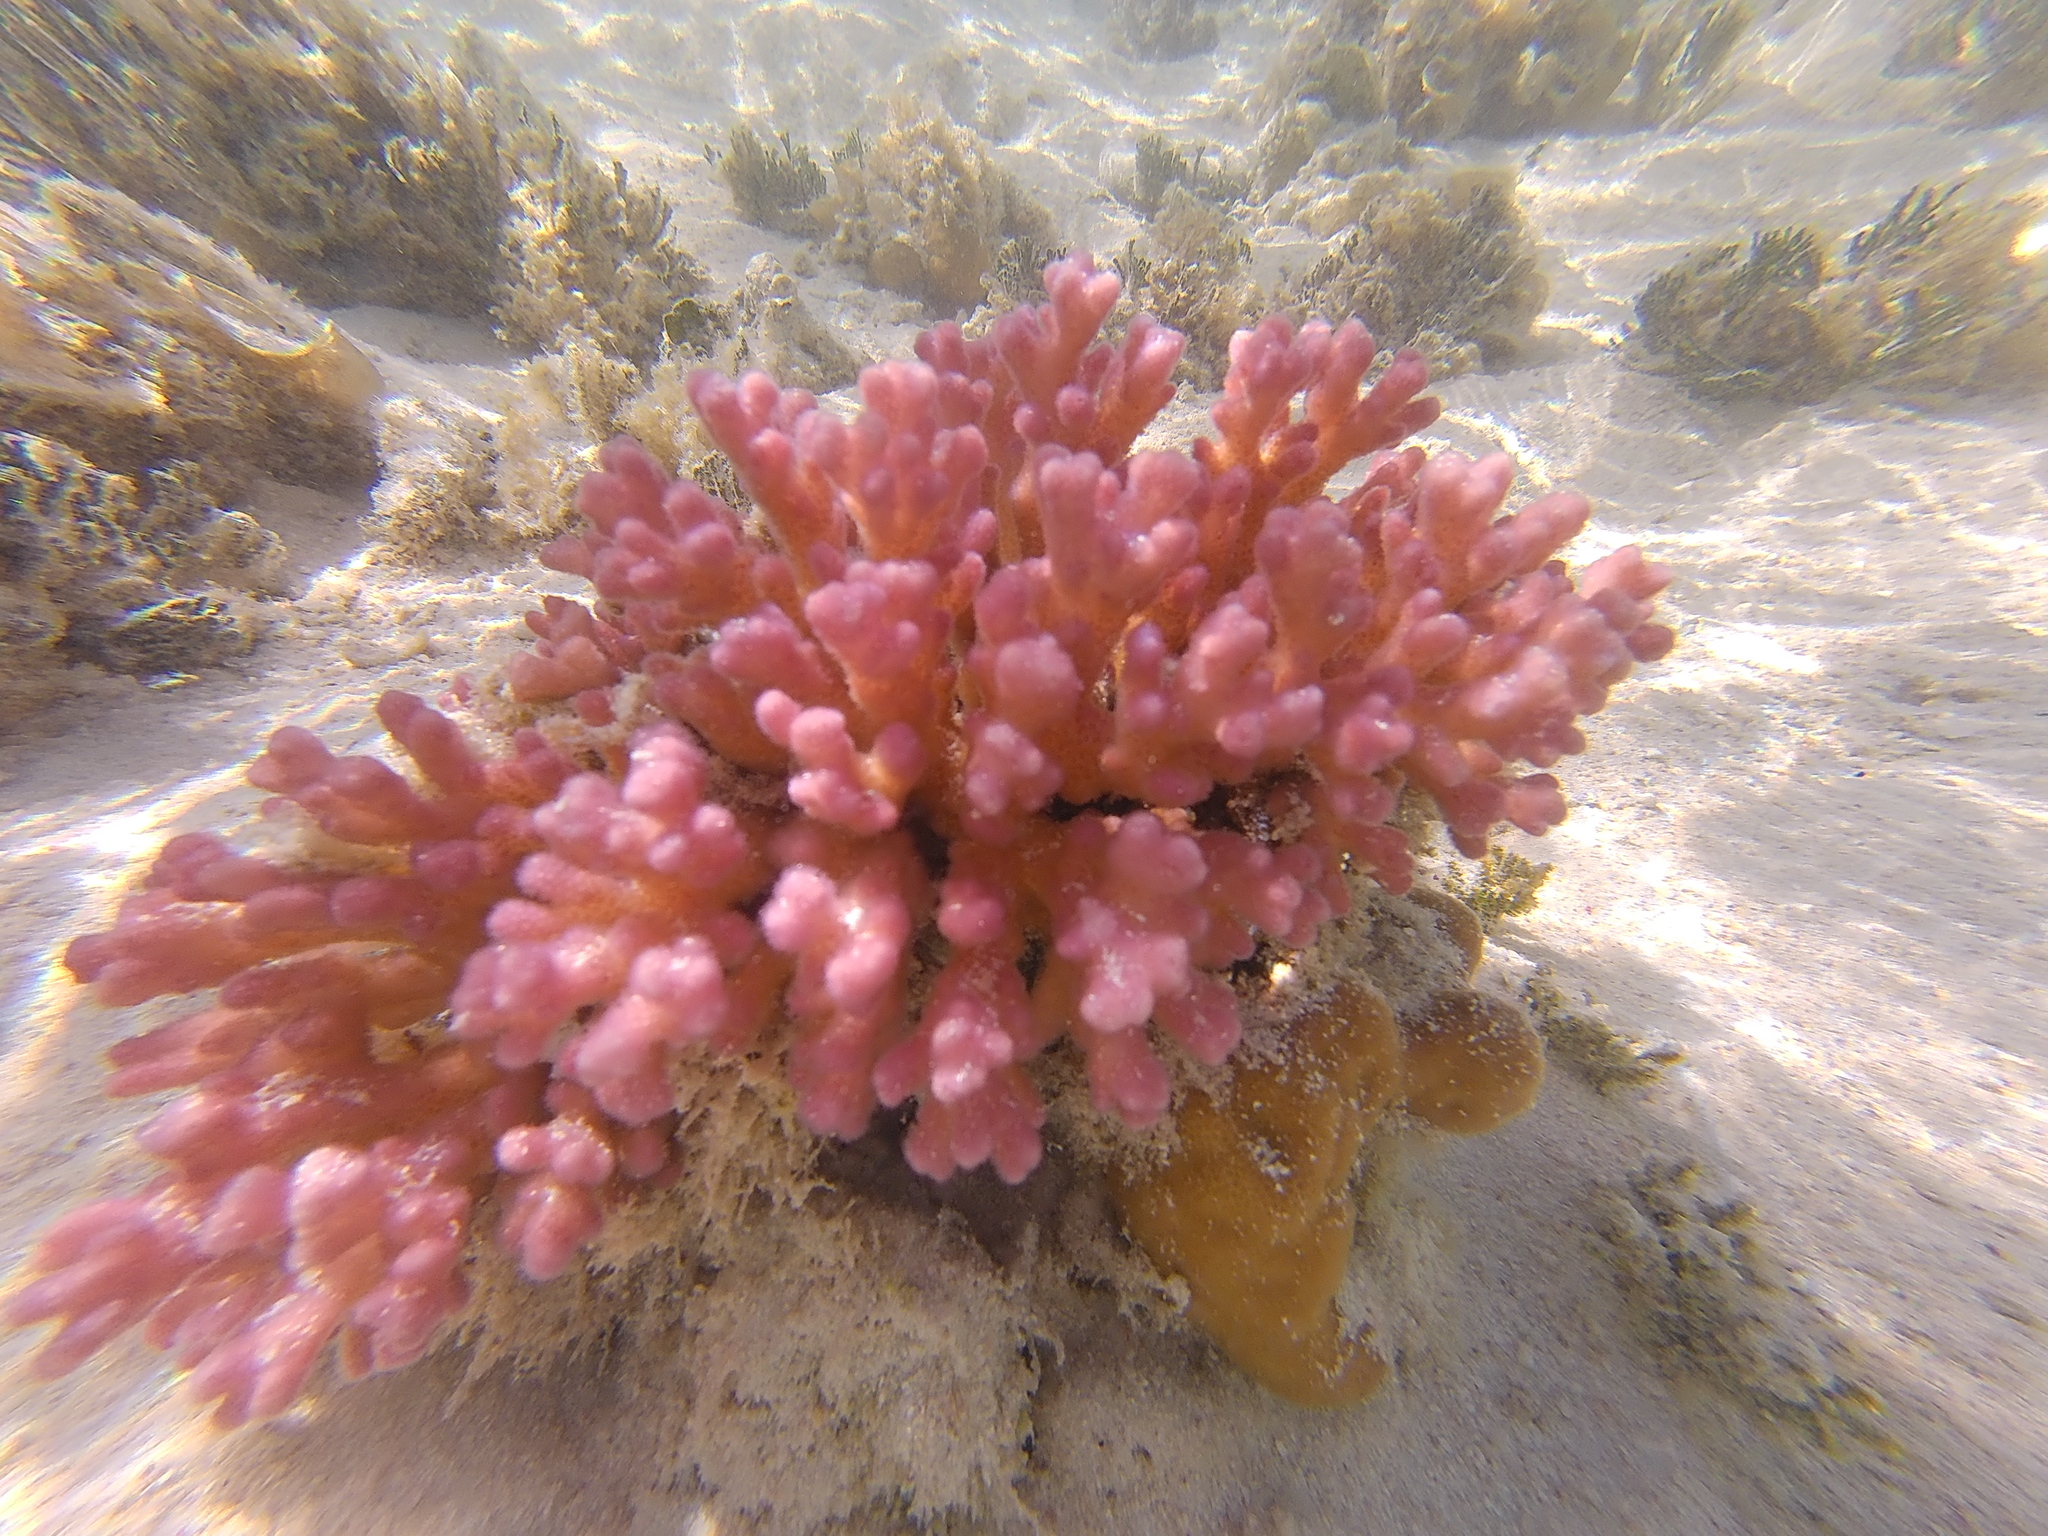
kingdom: Animalia
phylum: Cnidaria
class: Anthozoa
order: Scleractinia
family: Pocilloporidae
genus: Pocillopora
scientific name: Pocillopora damicornis
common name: Cauliflower coral
